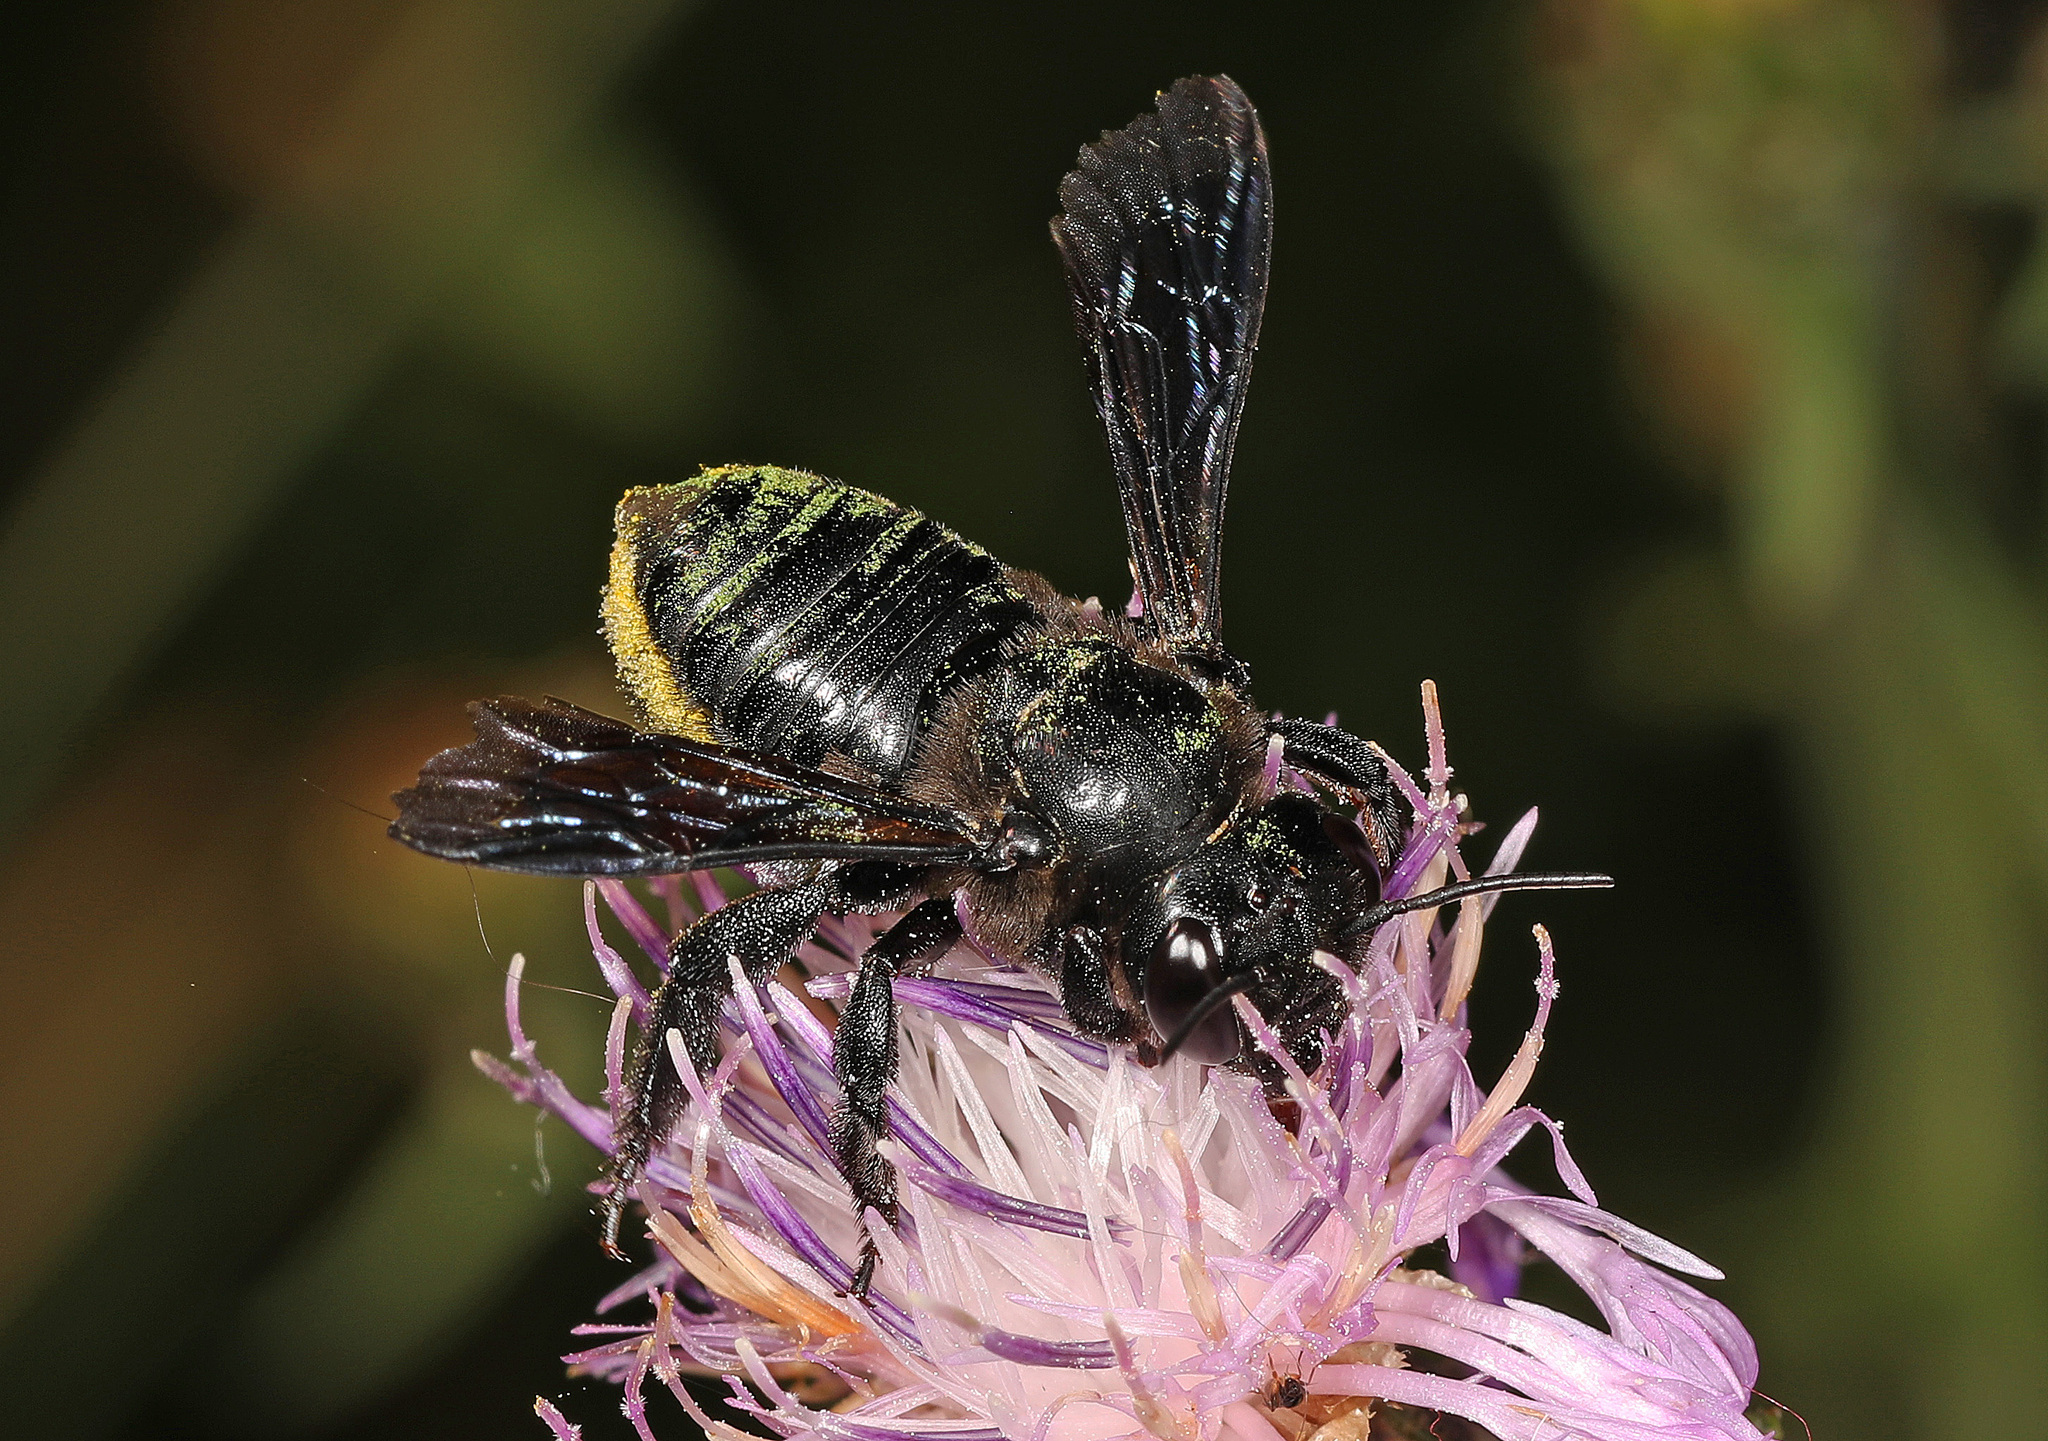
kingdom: Animalia
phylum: Arthropoda
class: Insecta
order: Hymenoptera
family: Megachilidae
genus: Megachile
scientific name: Megachile xylocopoides
